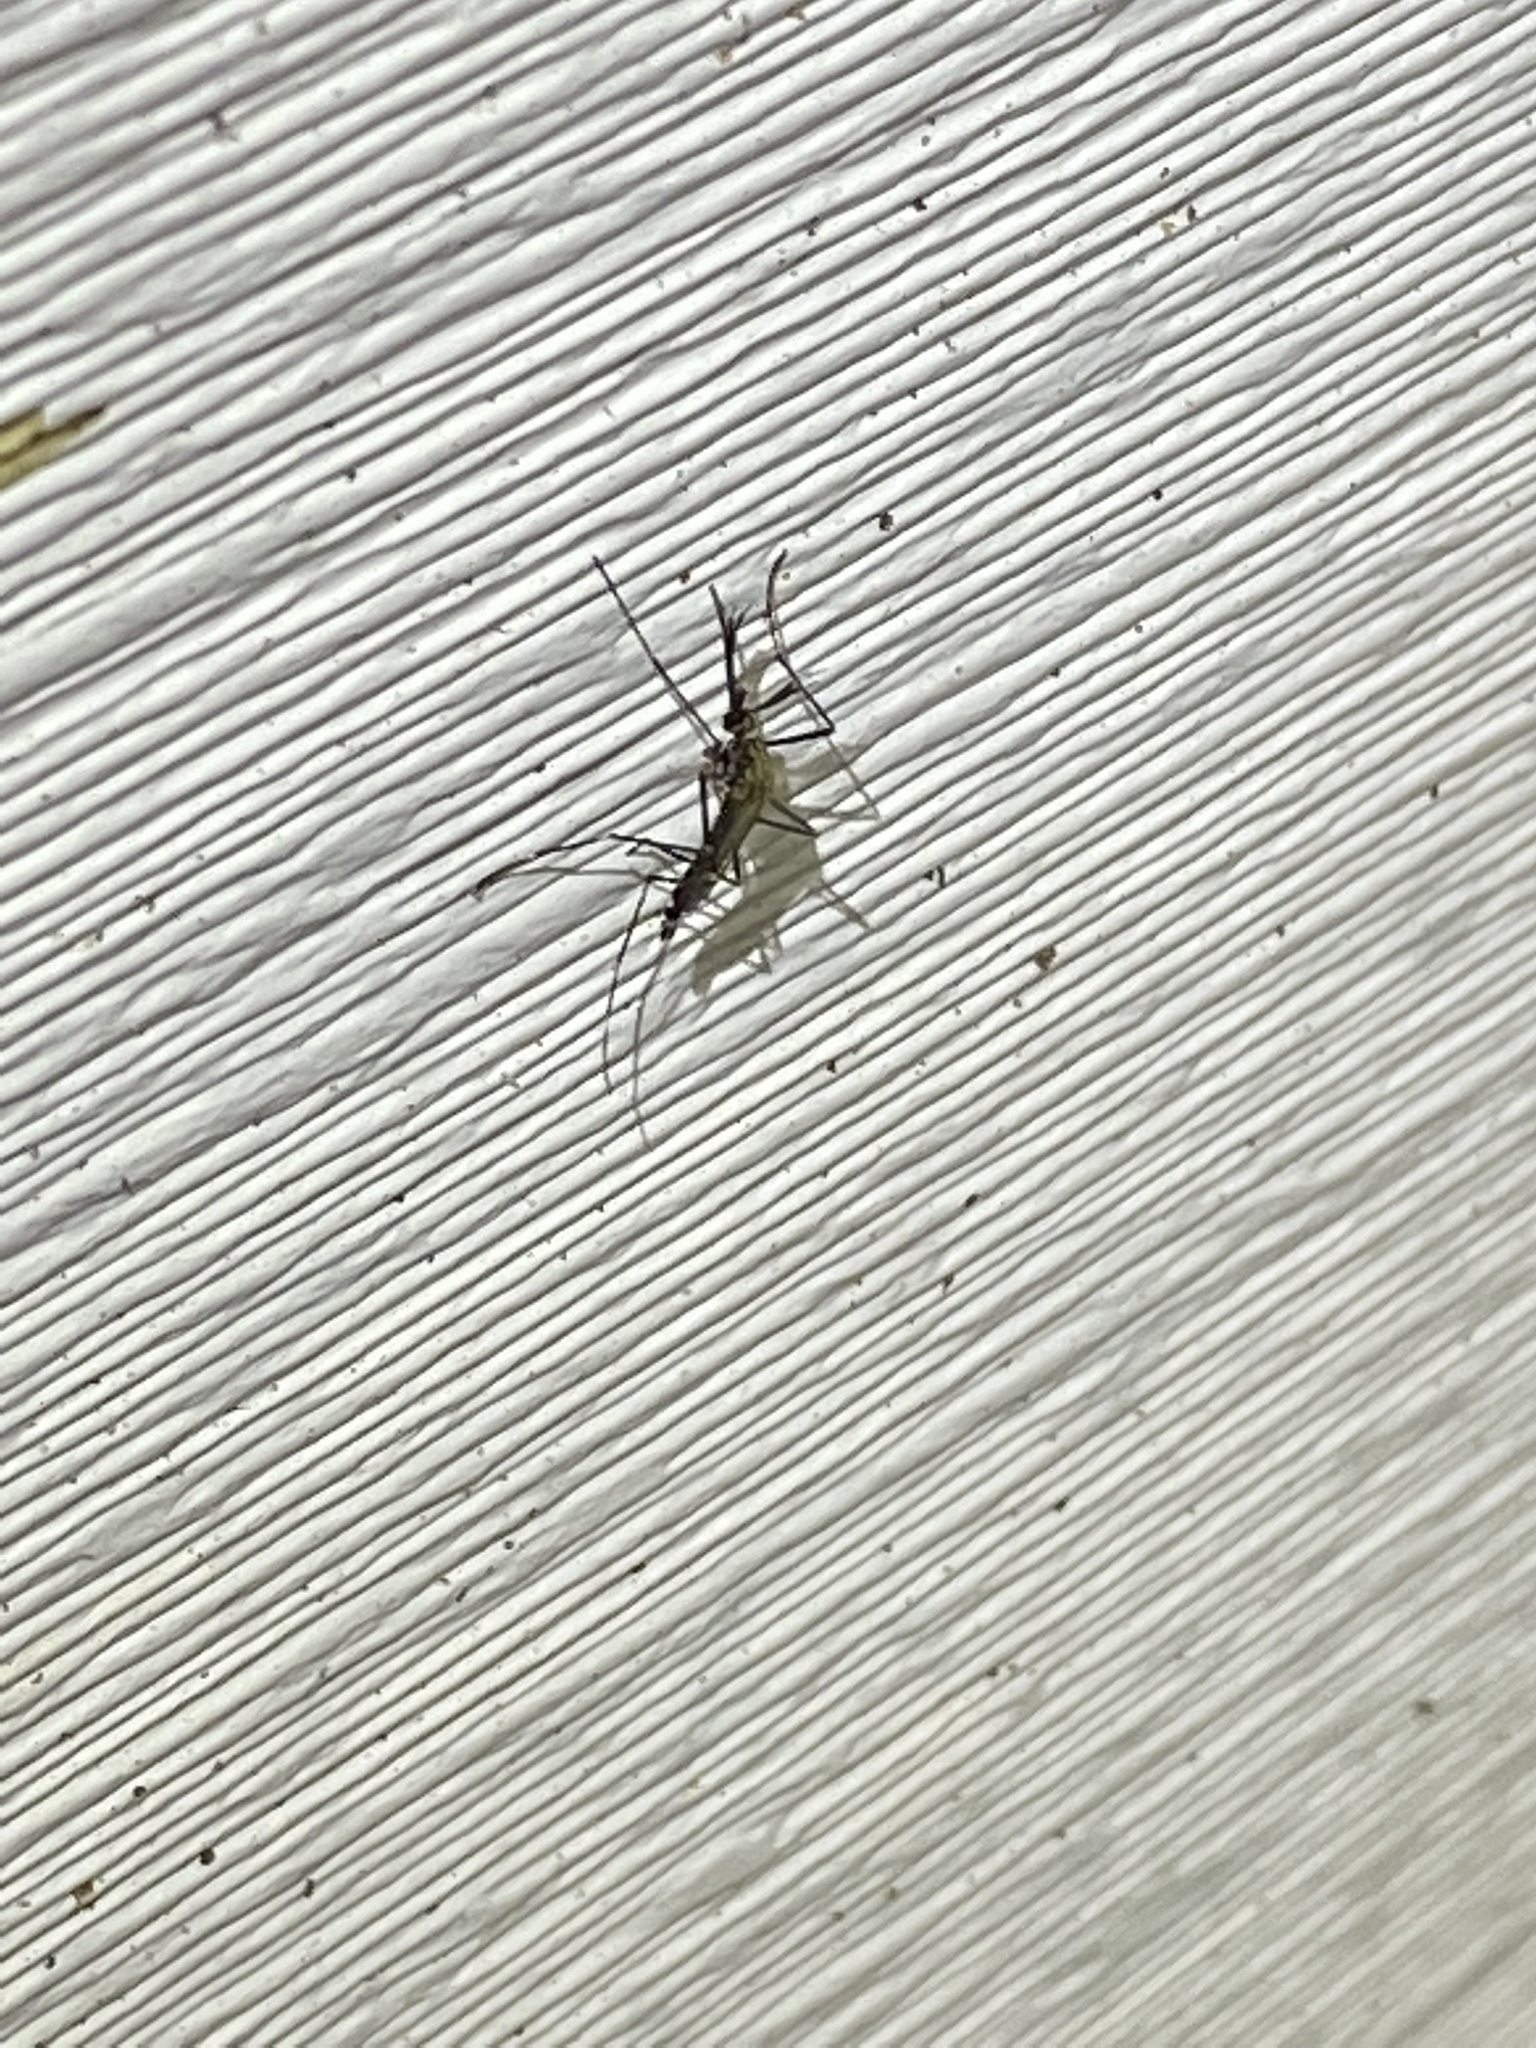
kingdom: Animalia
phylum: Arthropoda
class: Insecta
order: Diptera
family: Culicidae
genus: Aedes
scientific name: Aedes japonicus
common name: Asian bush mosquito
